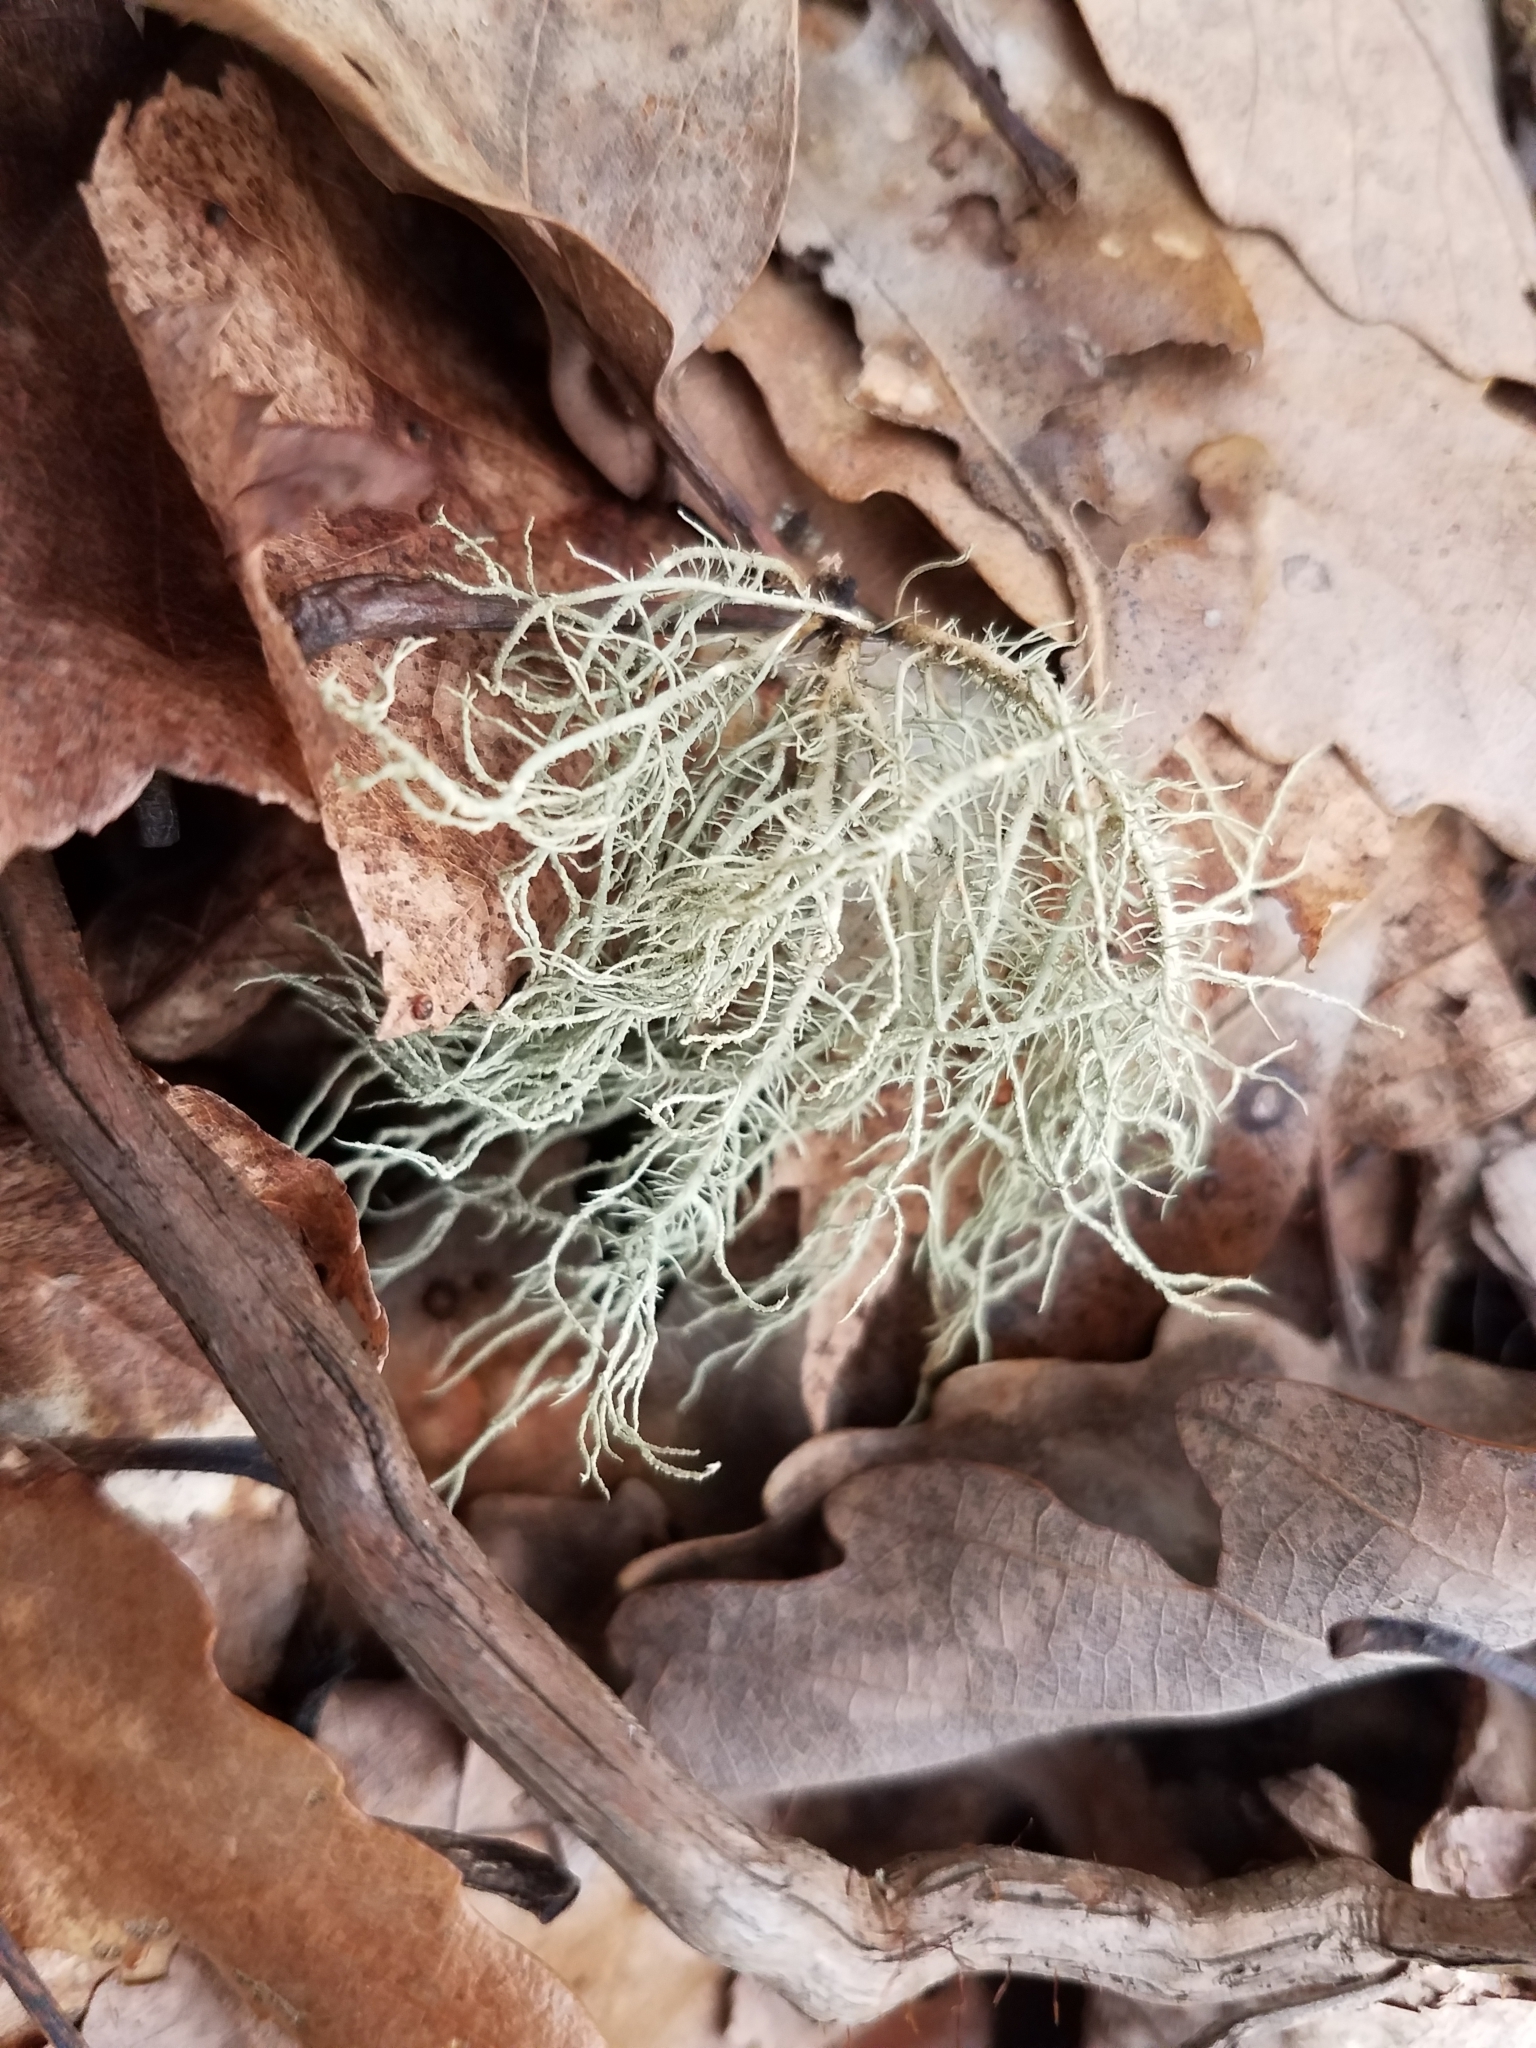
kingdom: Fungi
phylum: Ascomycota
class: Lecanoromycetes
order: Lecanorales
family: Parmeliaceae
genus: Usnea
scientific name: Usnea strigosa
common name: Bushy beard lichen
